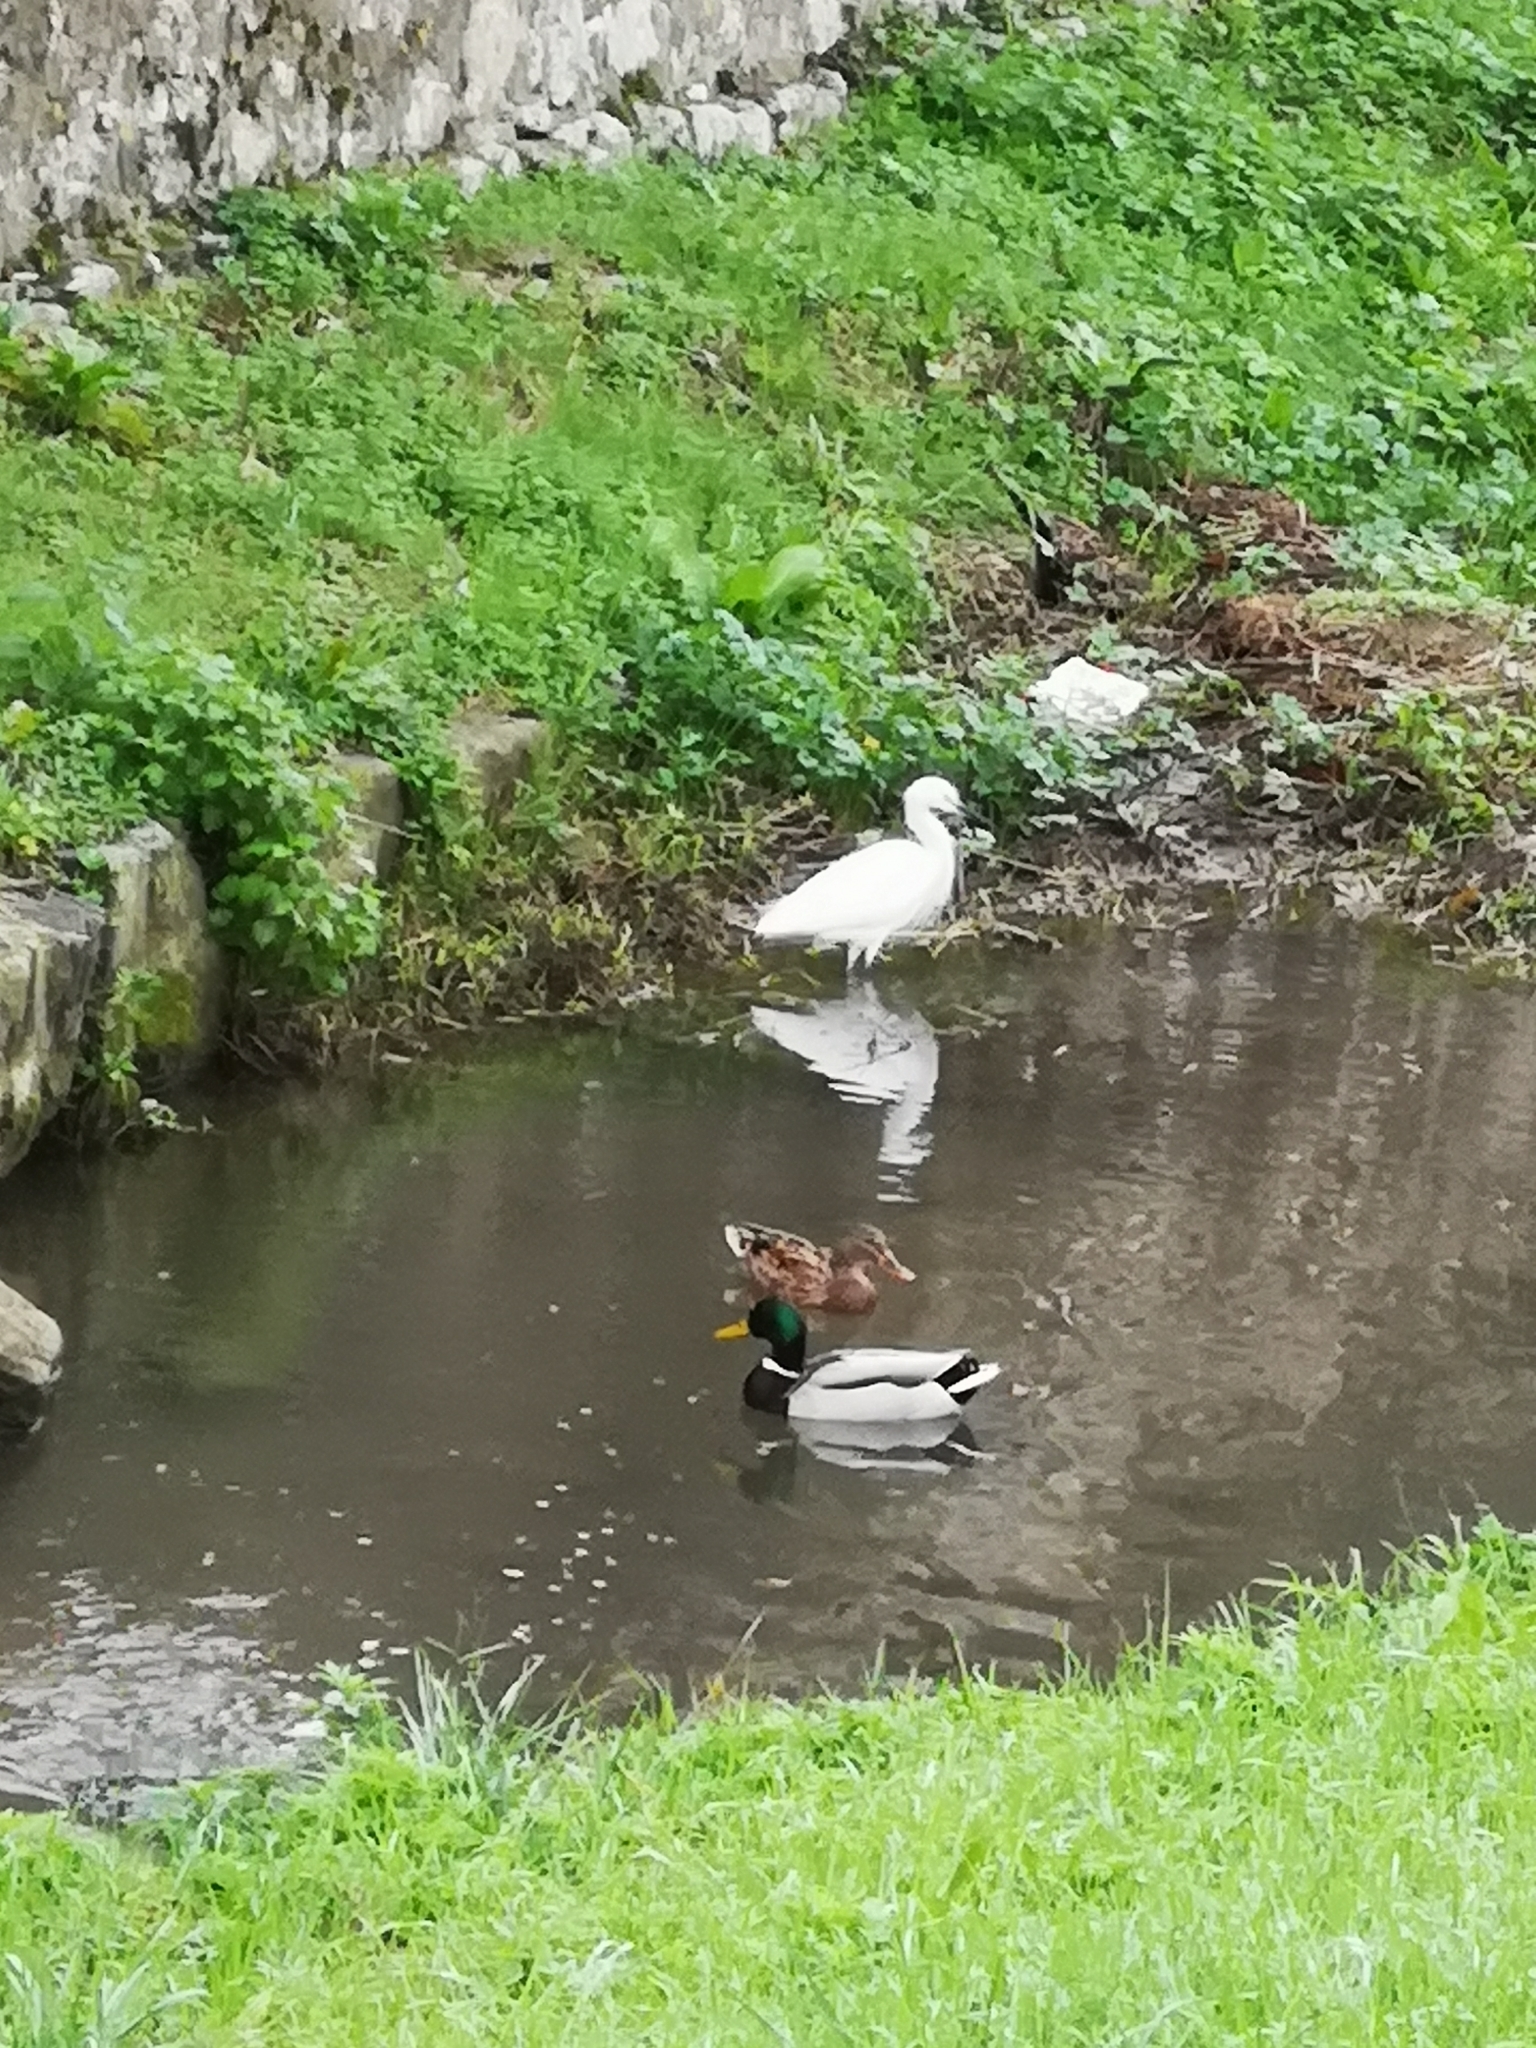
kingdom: Animalia
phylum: Chordata
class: Aves
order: Pelecaniformes
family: Ardeidae
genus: Egretta
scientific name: Egretta garzetta
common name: Little egret
